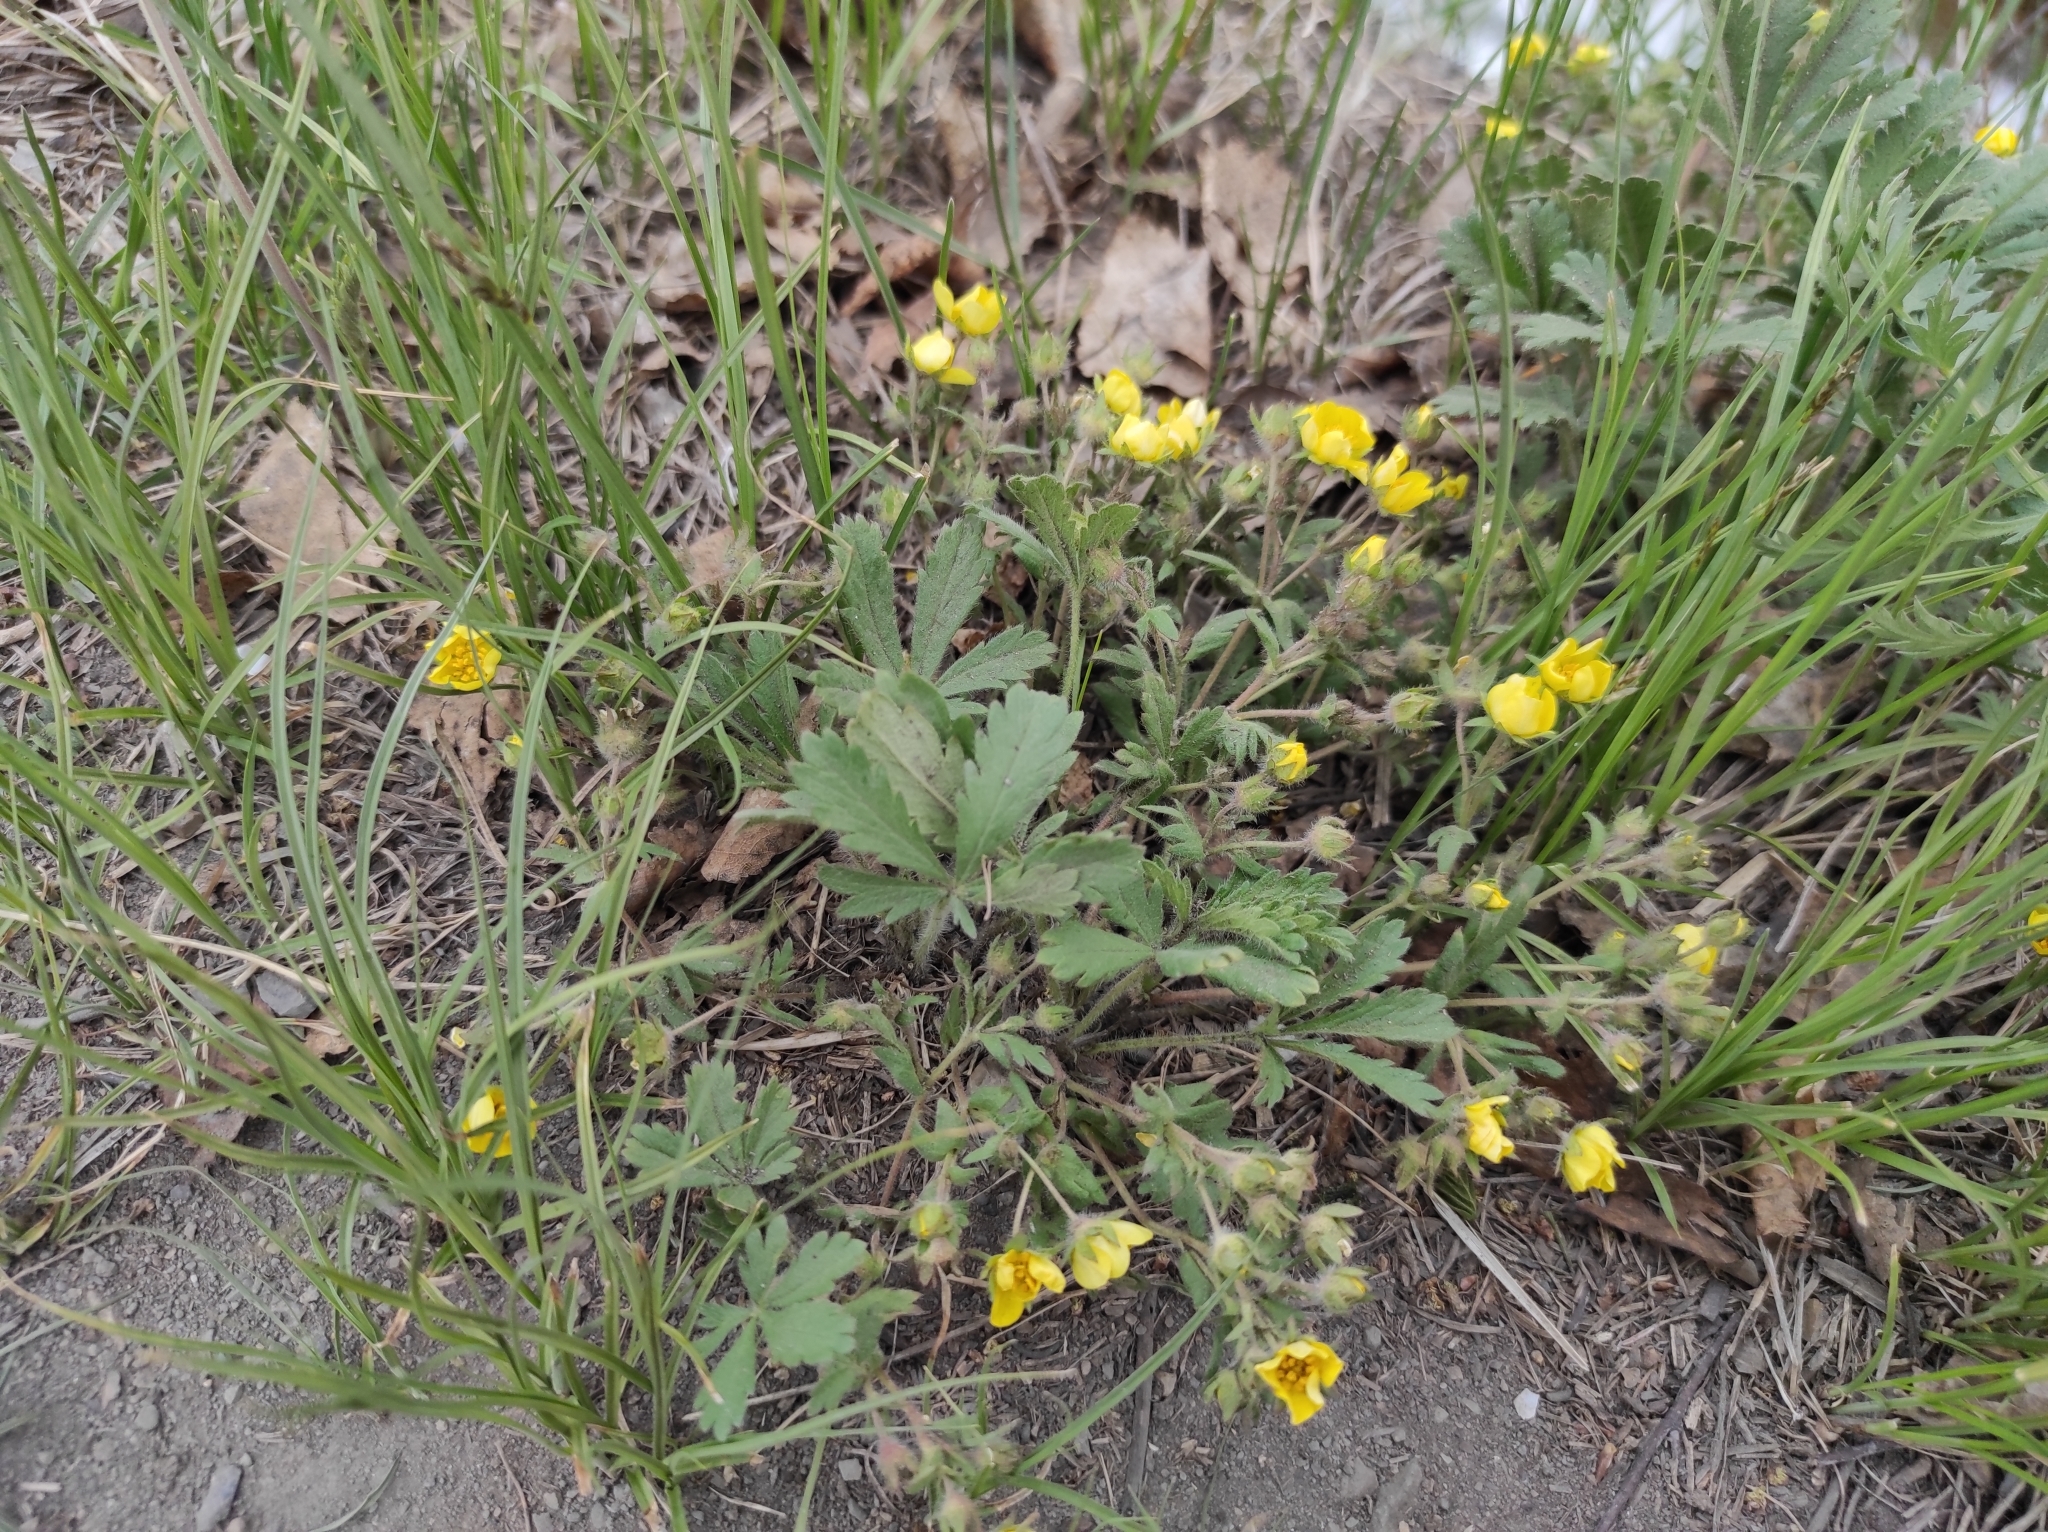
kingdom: Plantae
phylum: Tracheophyta
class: Magnoliopsida
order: Rosales
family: Rosaceae
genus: Potentilla
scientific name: Potentilla humifusa
